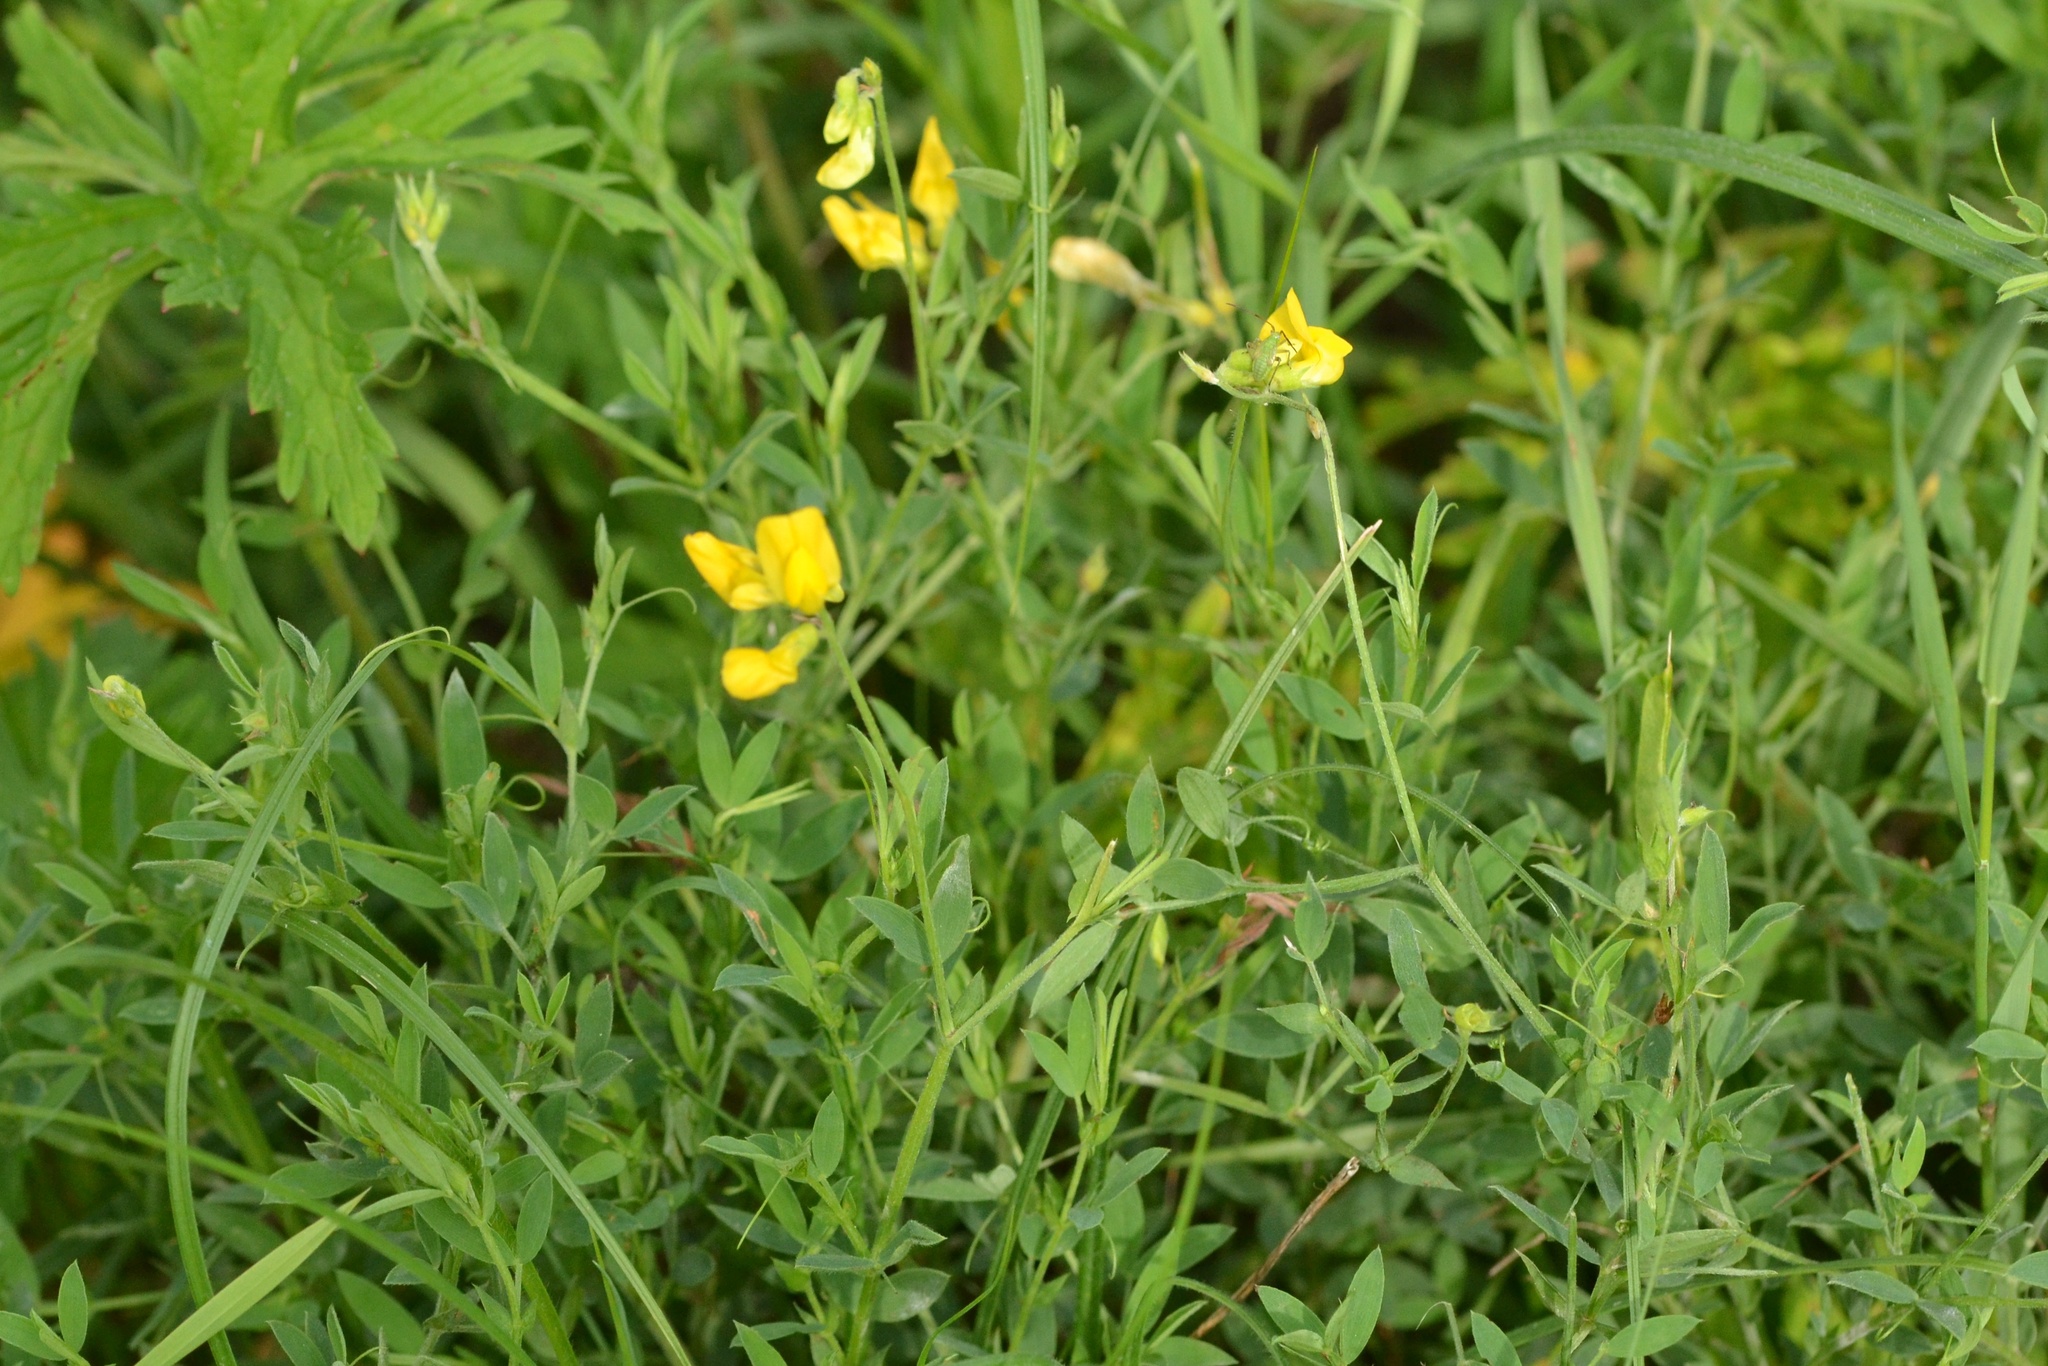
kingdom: Plantae
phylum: Tracheophyta
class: Magnoliopsida
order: Fabales
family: Fabaceae
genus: Lathyrus
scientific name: Lathyrus pratensis
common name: Meadow vetchling
